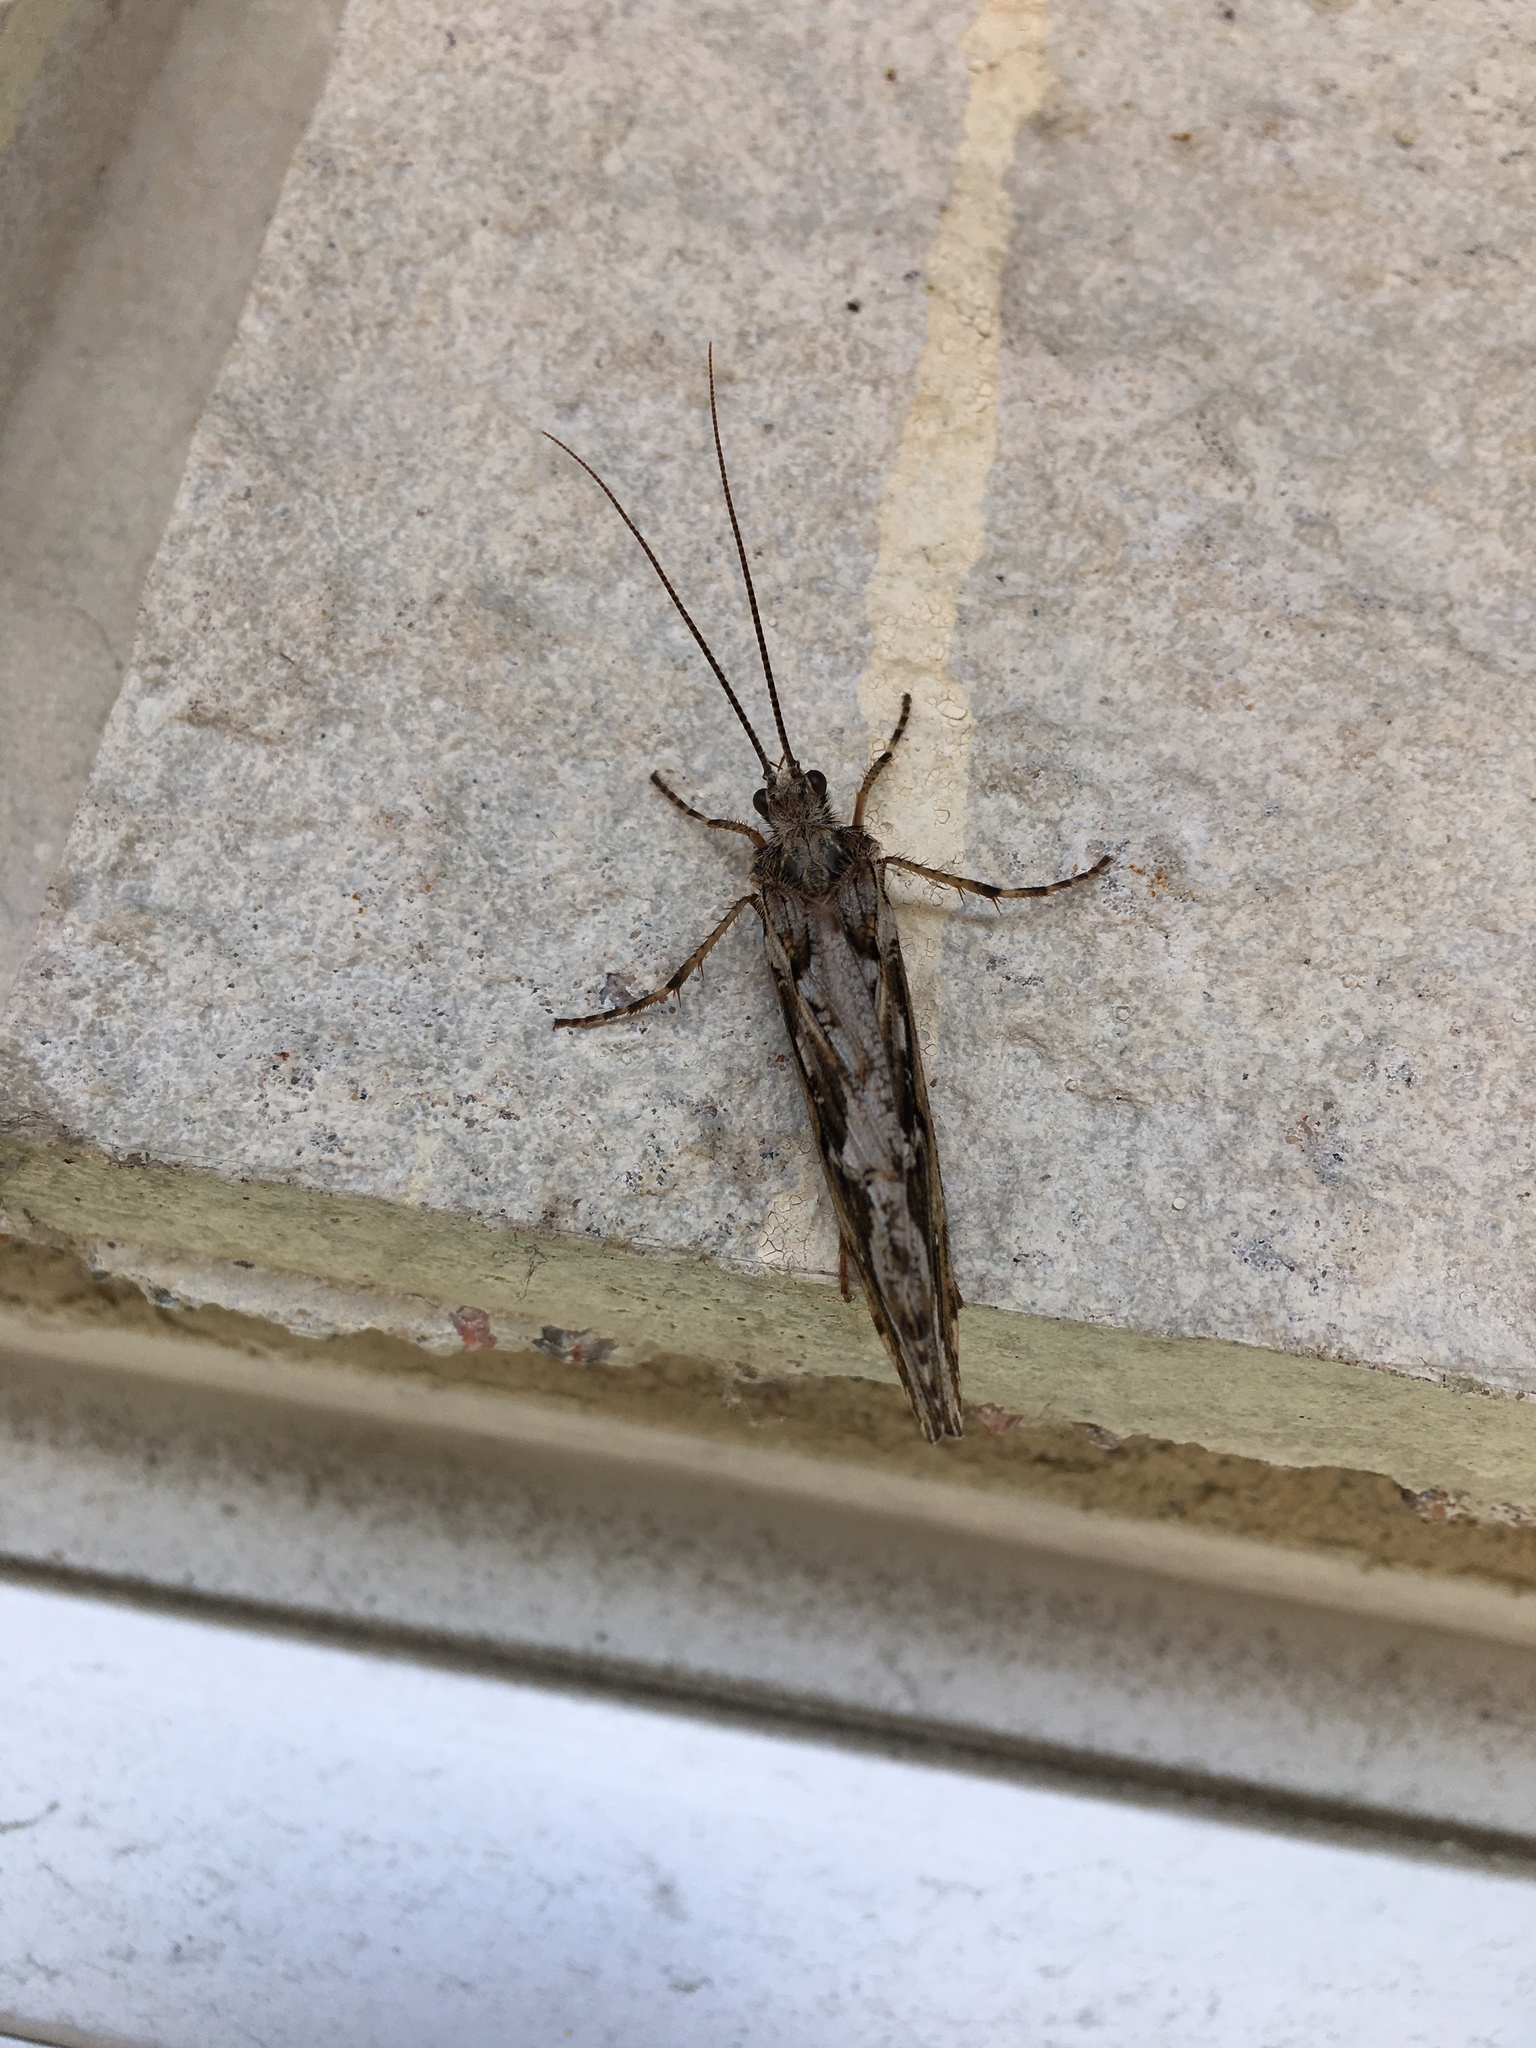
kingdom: Animalia
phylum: Arthropoda
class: Insecta
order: Trichoptera
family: Phryganeidae
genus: Phryganea
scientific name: Phryganea grandis
